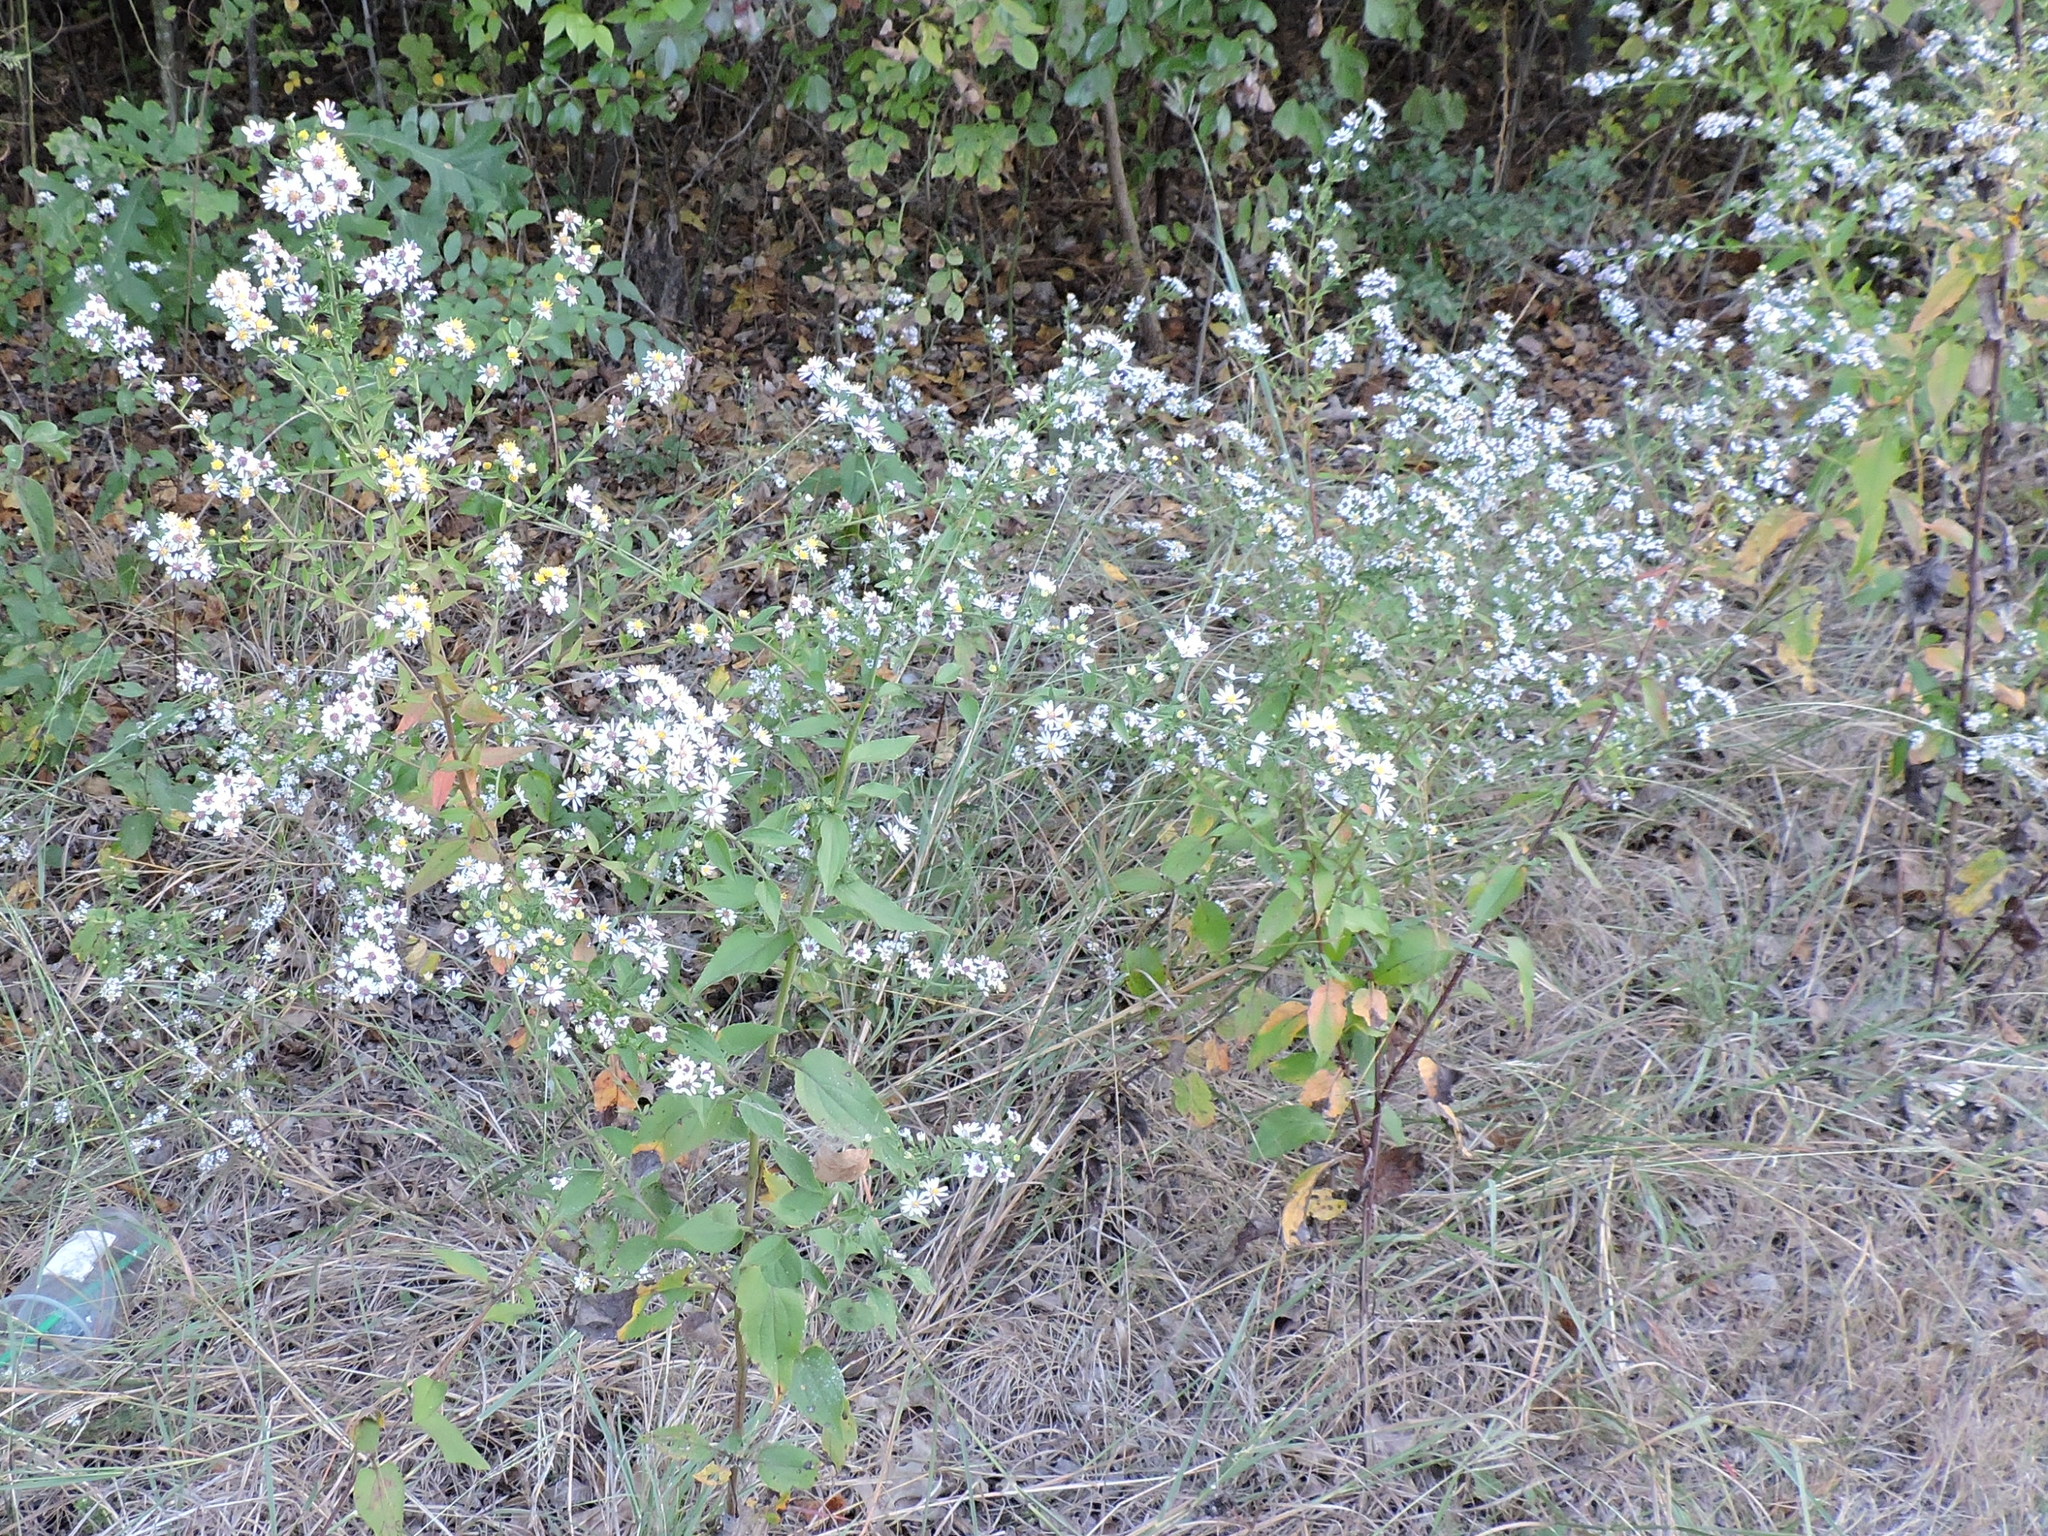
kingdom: Plantae
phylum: Tracheophyta
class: Magnoliopsida
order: Asterales
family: Asteraceae
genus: Symphyotrichum
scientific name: Symphyotrichum drummondii
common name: Drummond's aster
